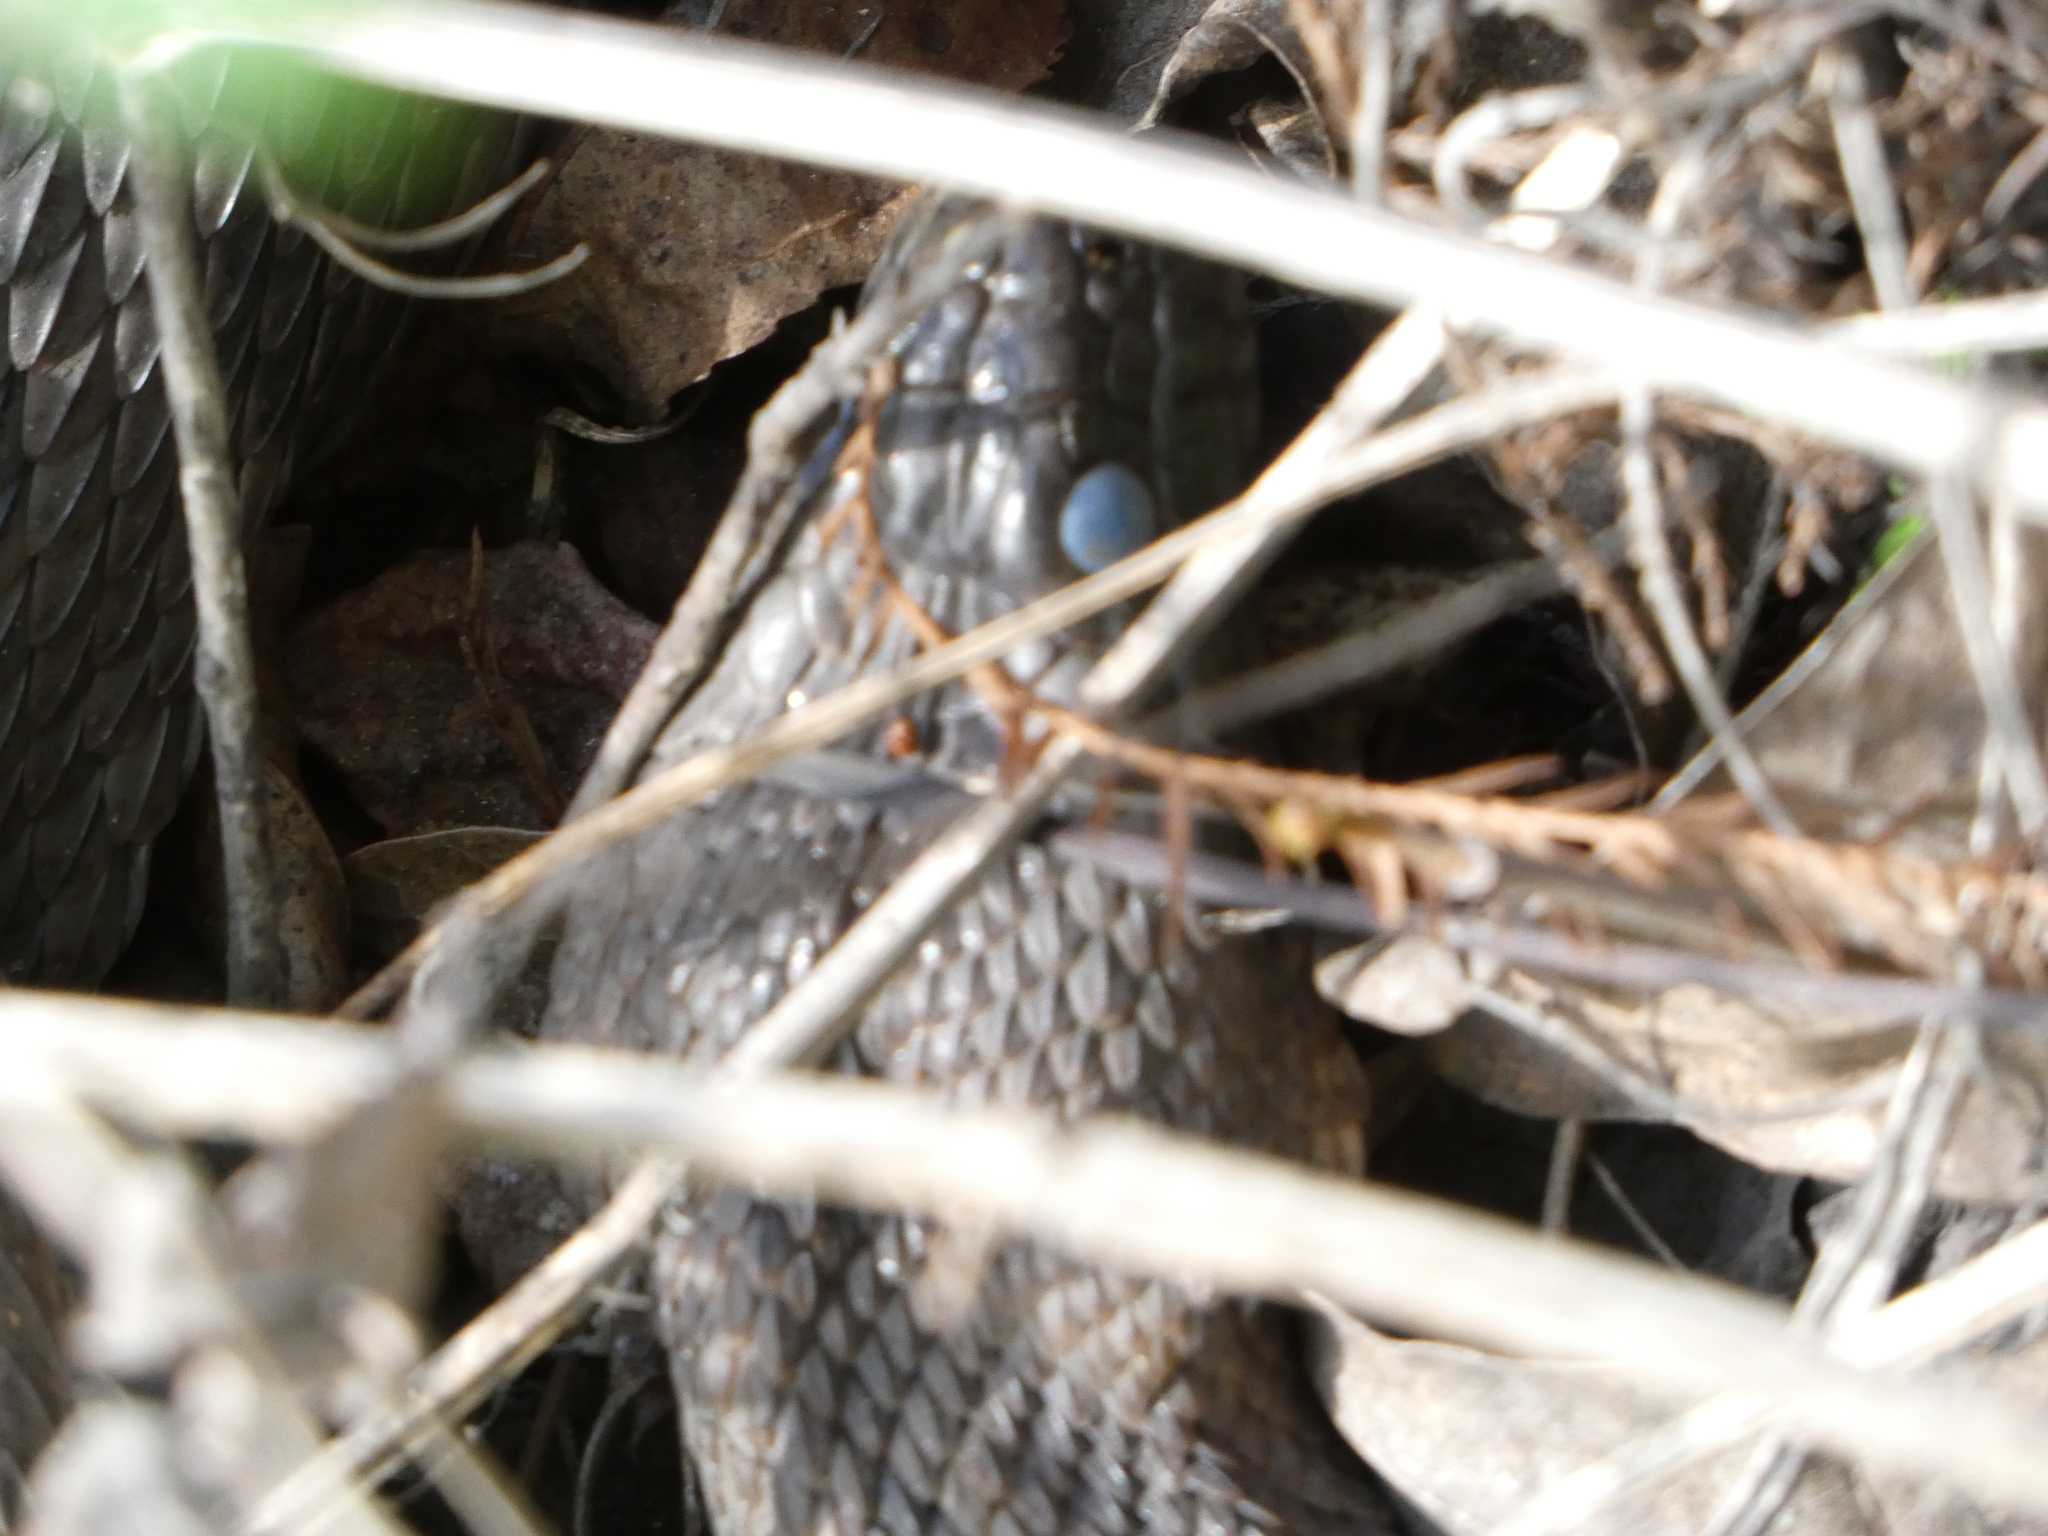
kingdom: Animalia
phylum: Chordata
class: Squamata
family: Colubridae
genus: Nerodia
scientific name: Nerodia taxispilota
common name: Brown water snake
